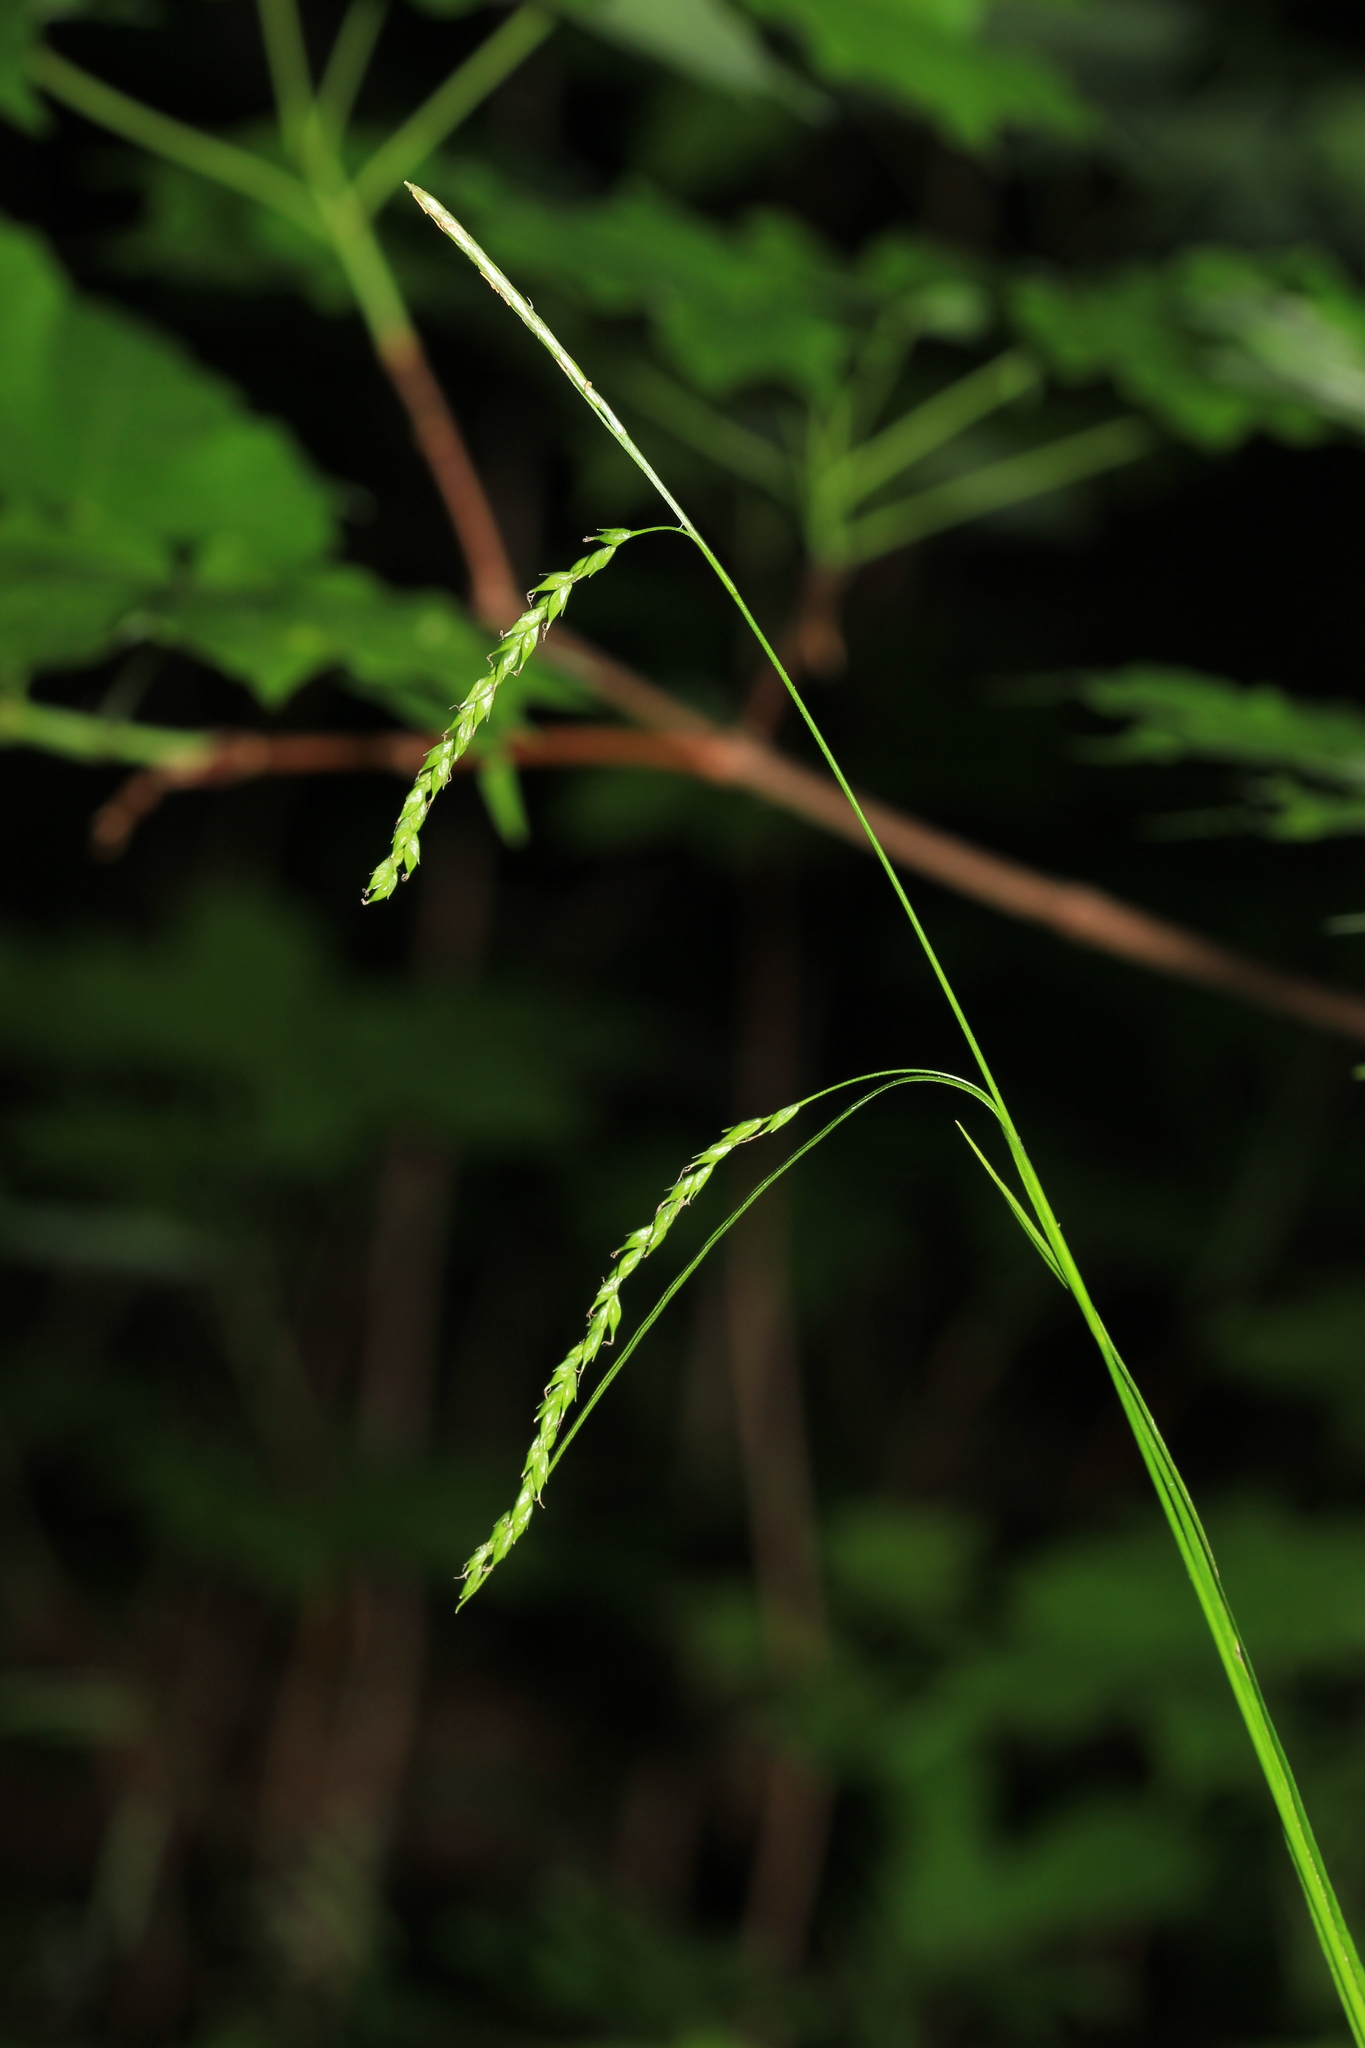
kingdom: Plantae
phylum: Tracheophyta
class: Liliopsida
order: Poales
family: Cyperaceae
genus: Carex
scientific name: Carex arctata
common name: Black sedge
